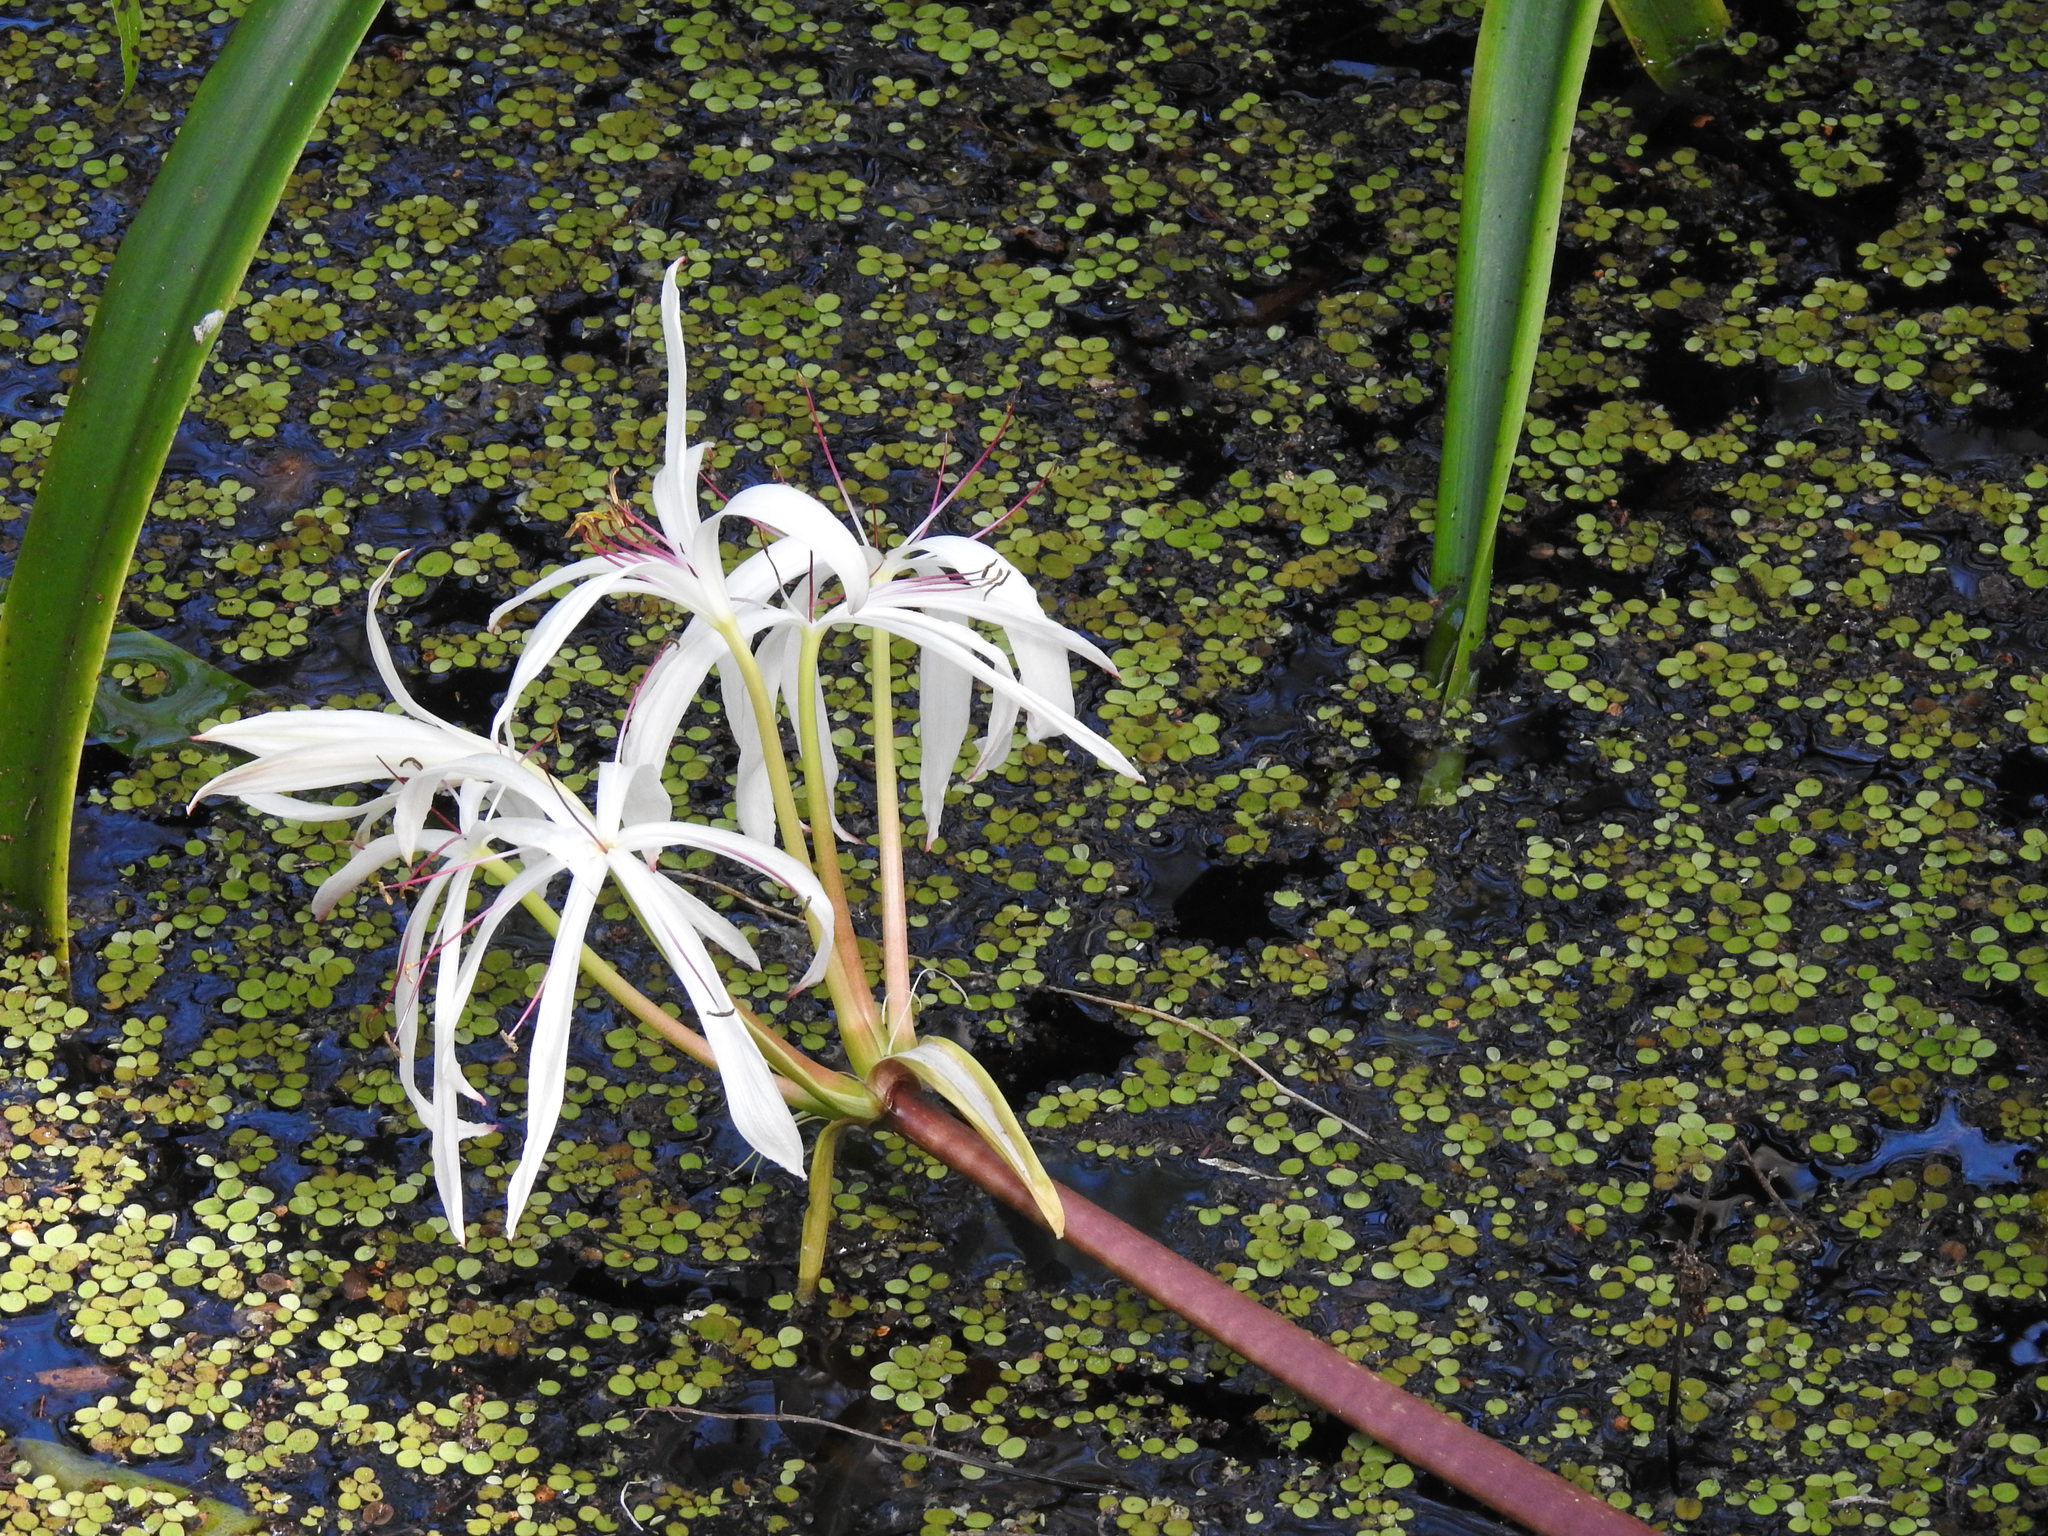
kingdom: Plantae
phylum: Tracheophyta
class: Liliopsida
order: Asparagales
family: Amaryllidaceae
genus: Crinum
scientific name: Crinum americanum
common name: Florida swamp-lily
